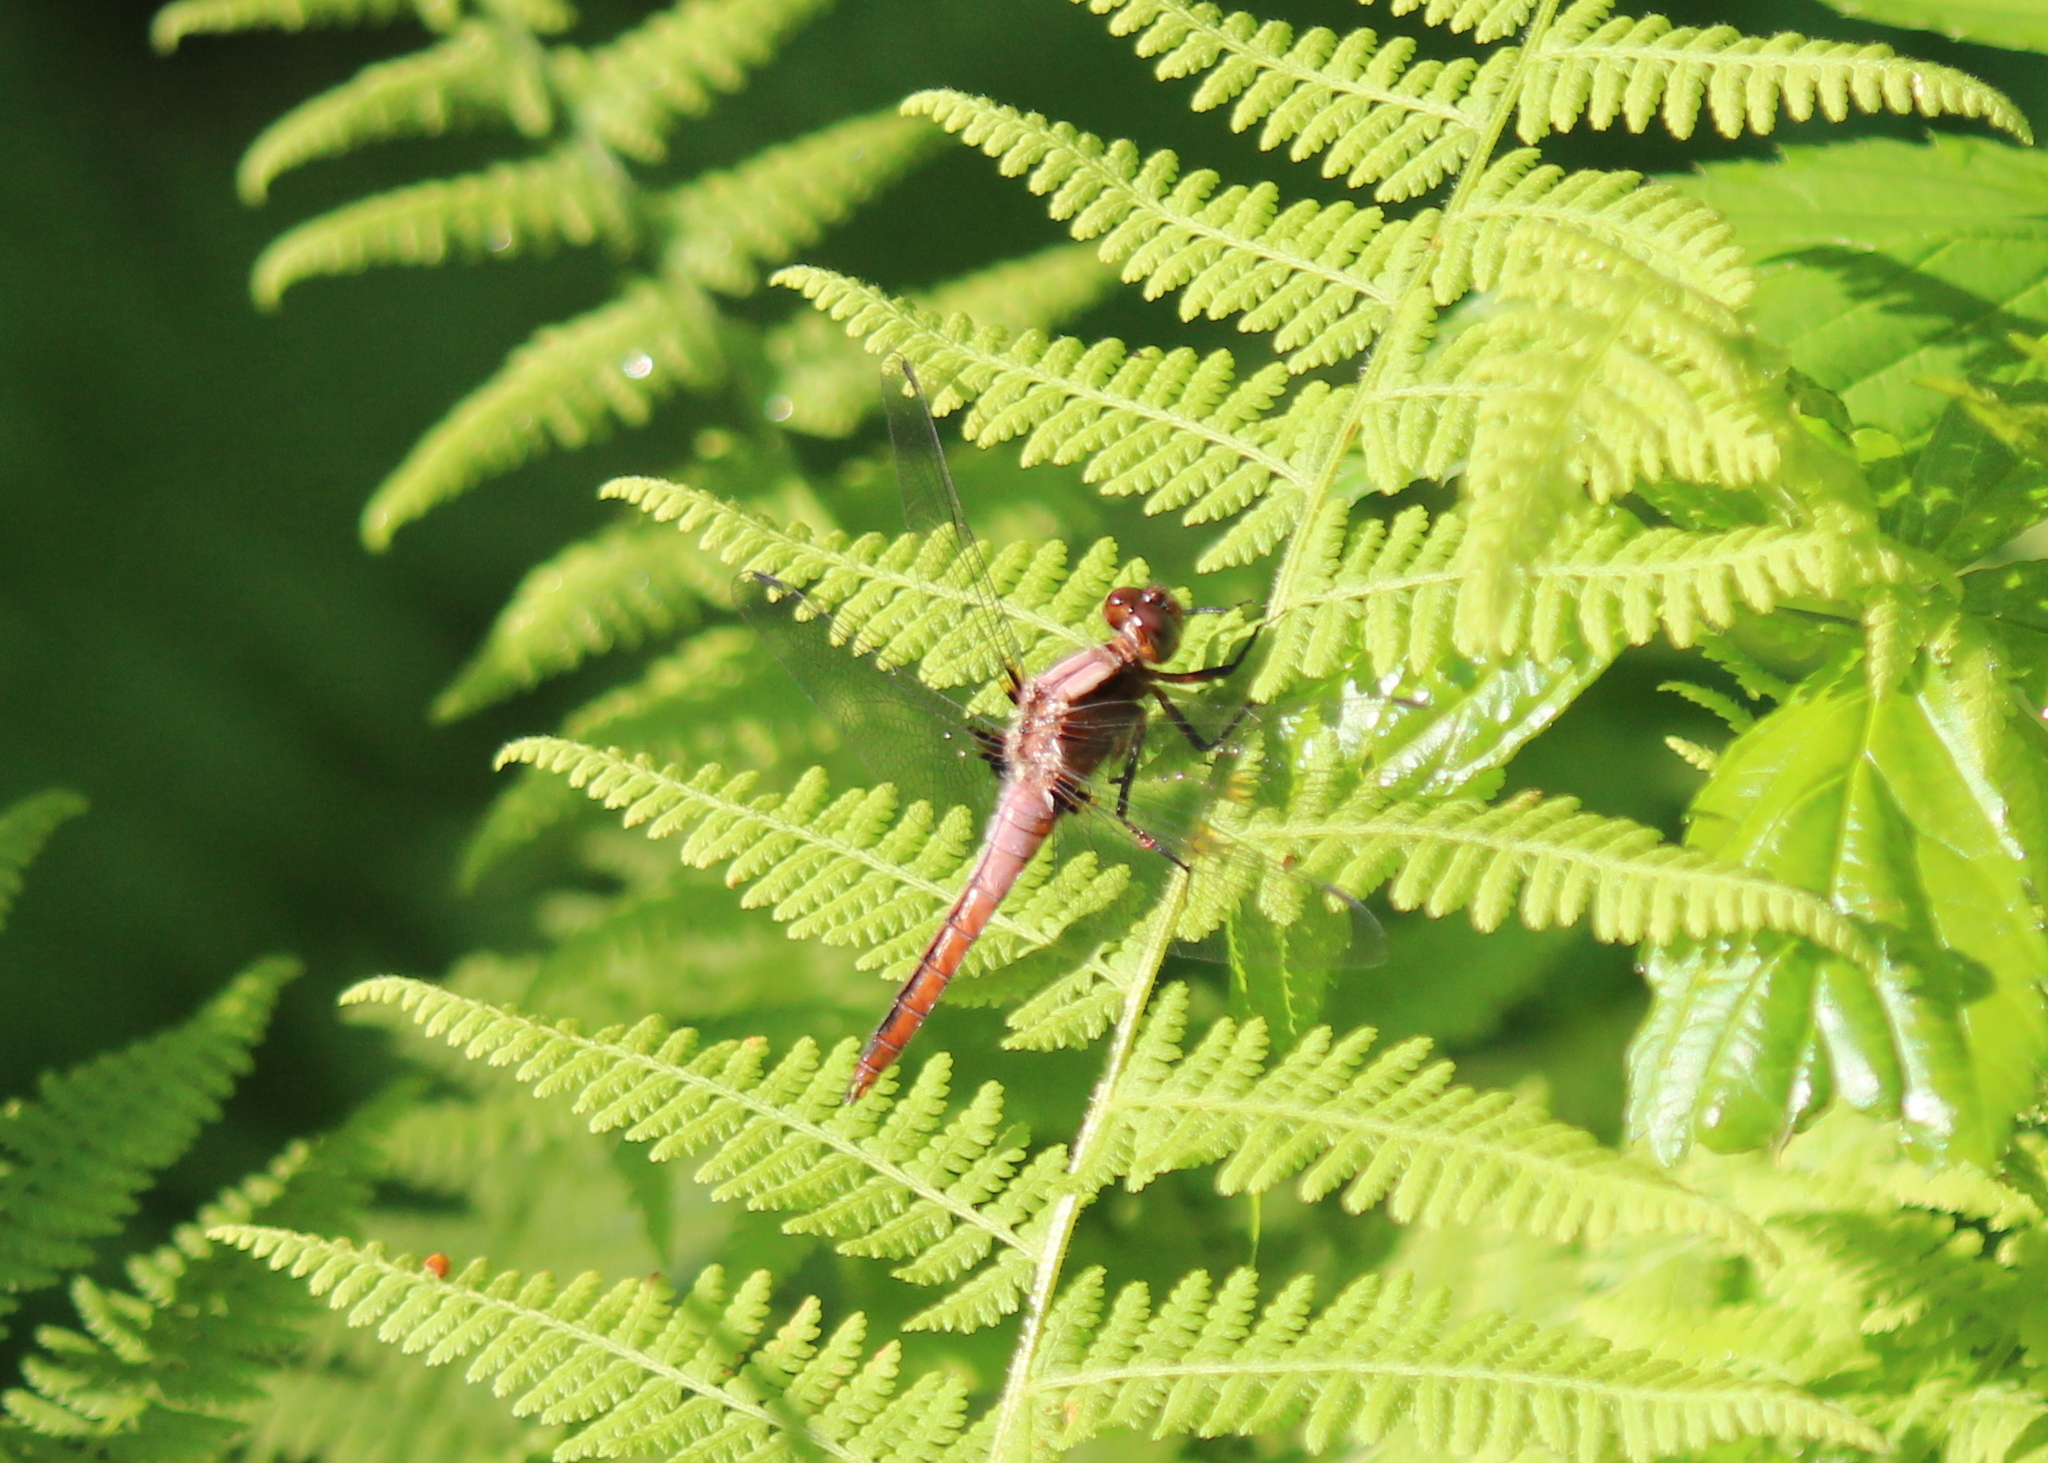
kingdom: Animalia
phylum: Arthropoda
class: Insecta
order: Odonata
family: Libellulidae
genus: Ladona
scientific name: Ladona julia
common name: Chalk-fronted corporal
